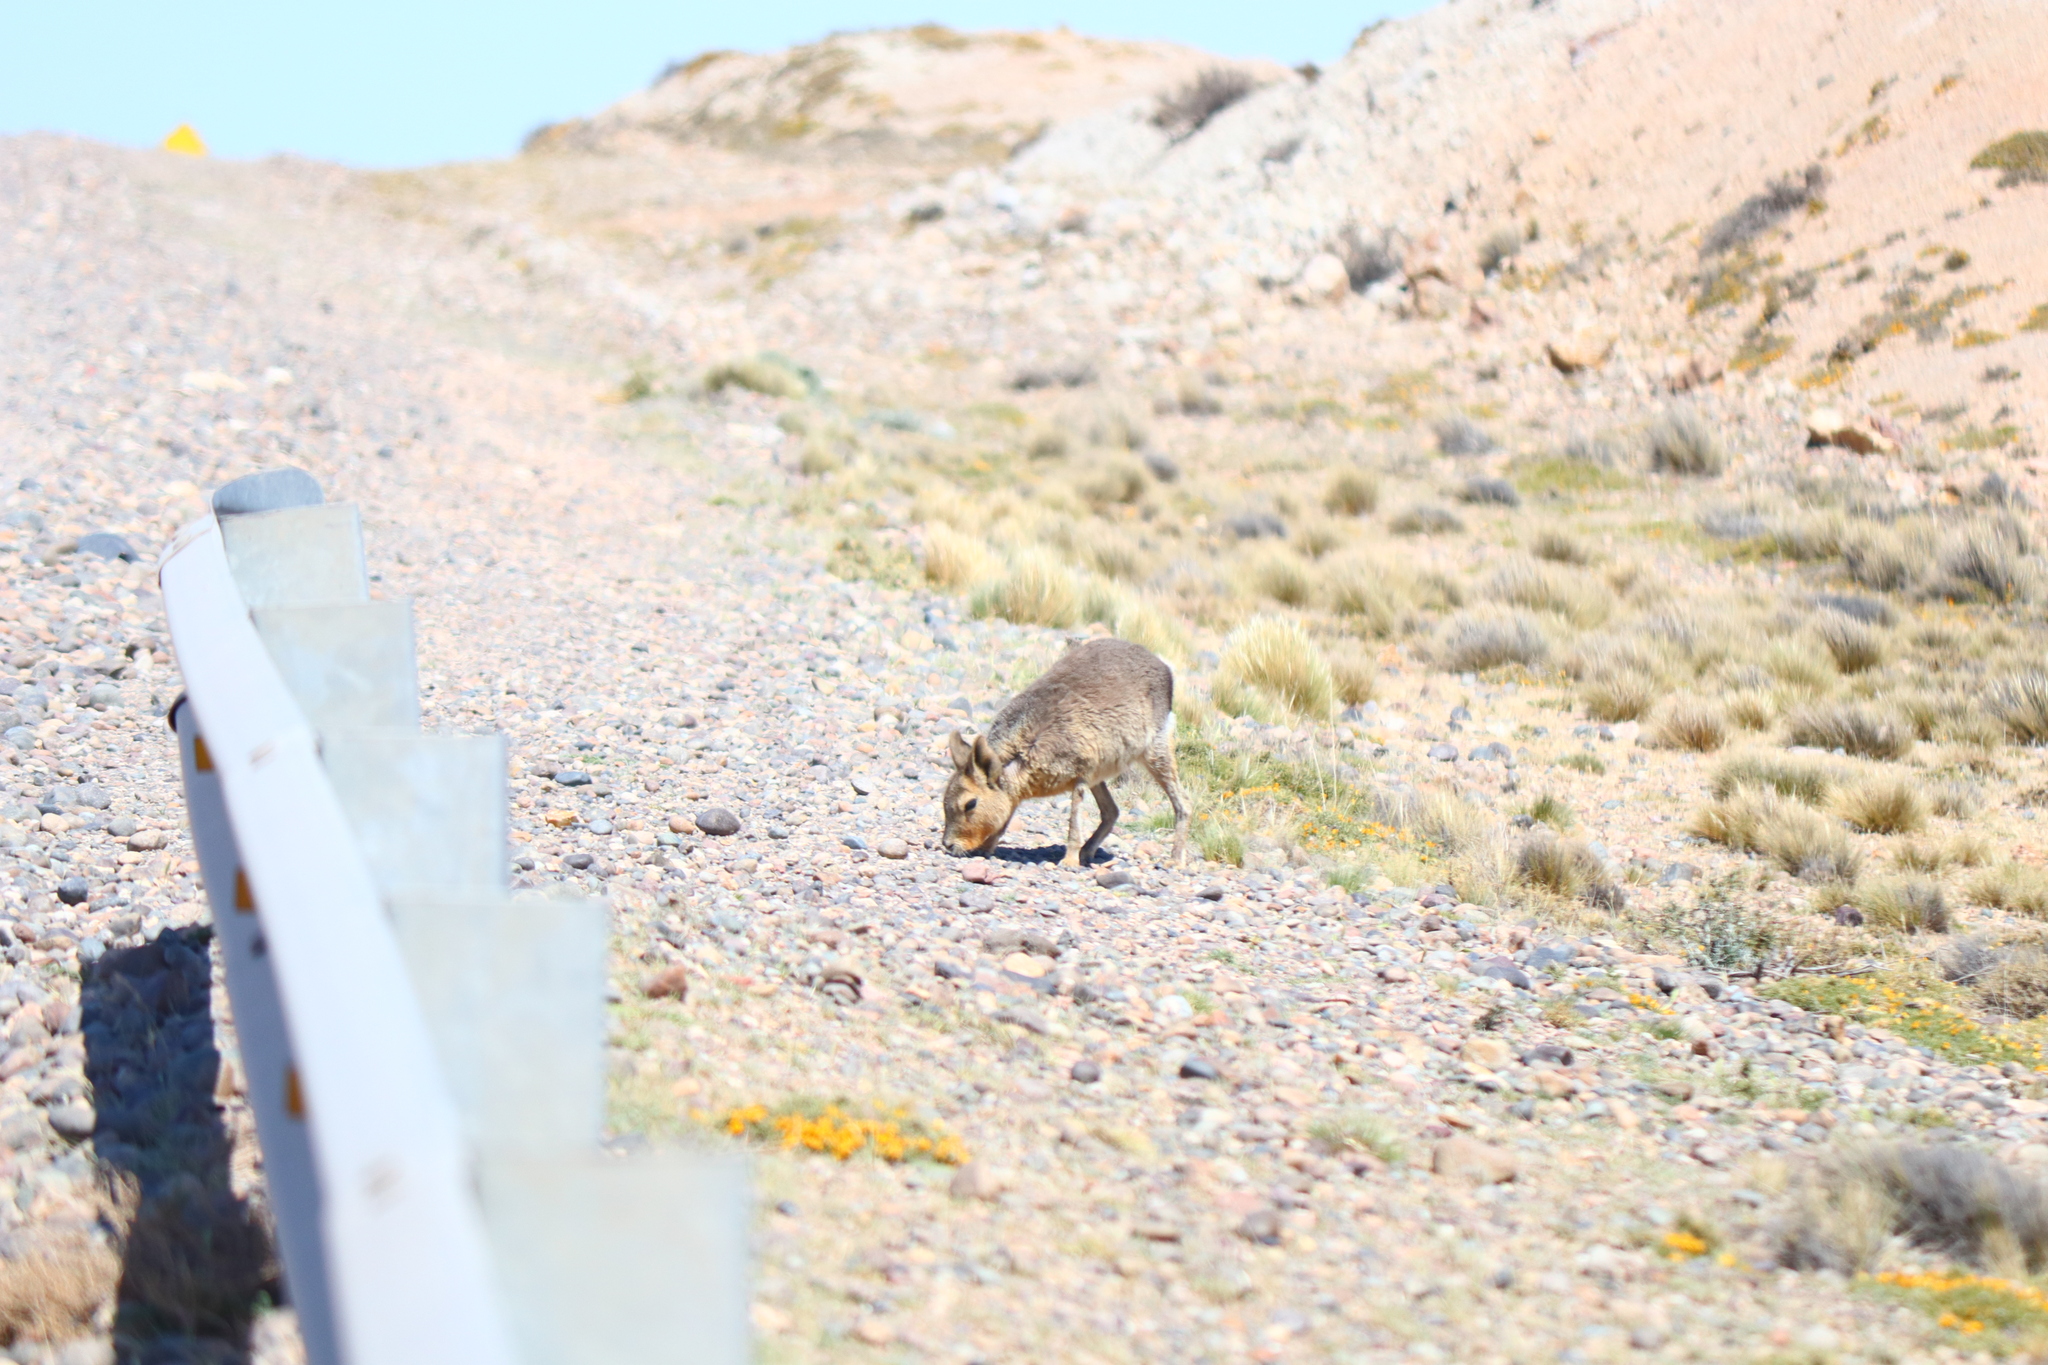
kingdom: Animalia
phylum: Chordata
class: Mammalia
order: Rodentia
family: Caviidae
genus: Dolichotis
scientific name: Dolichotis patagonum
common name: Patagonian mara
